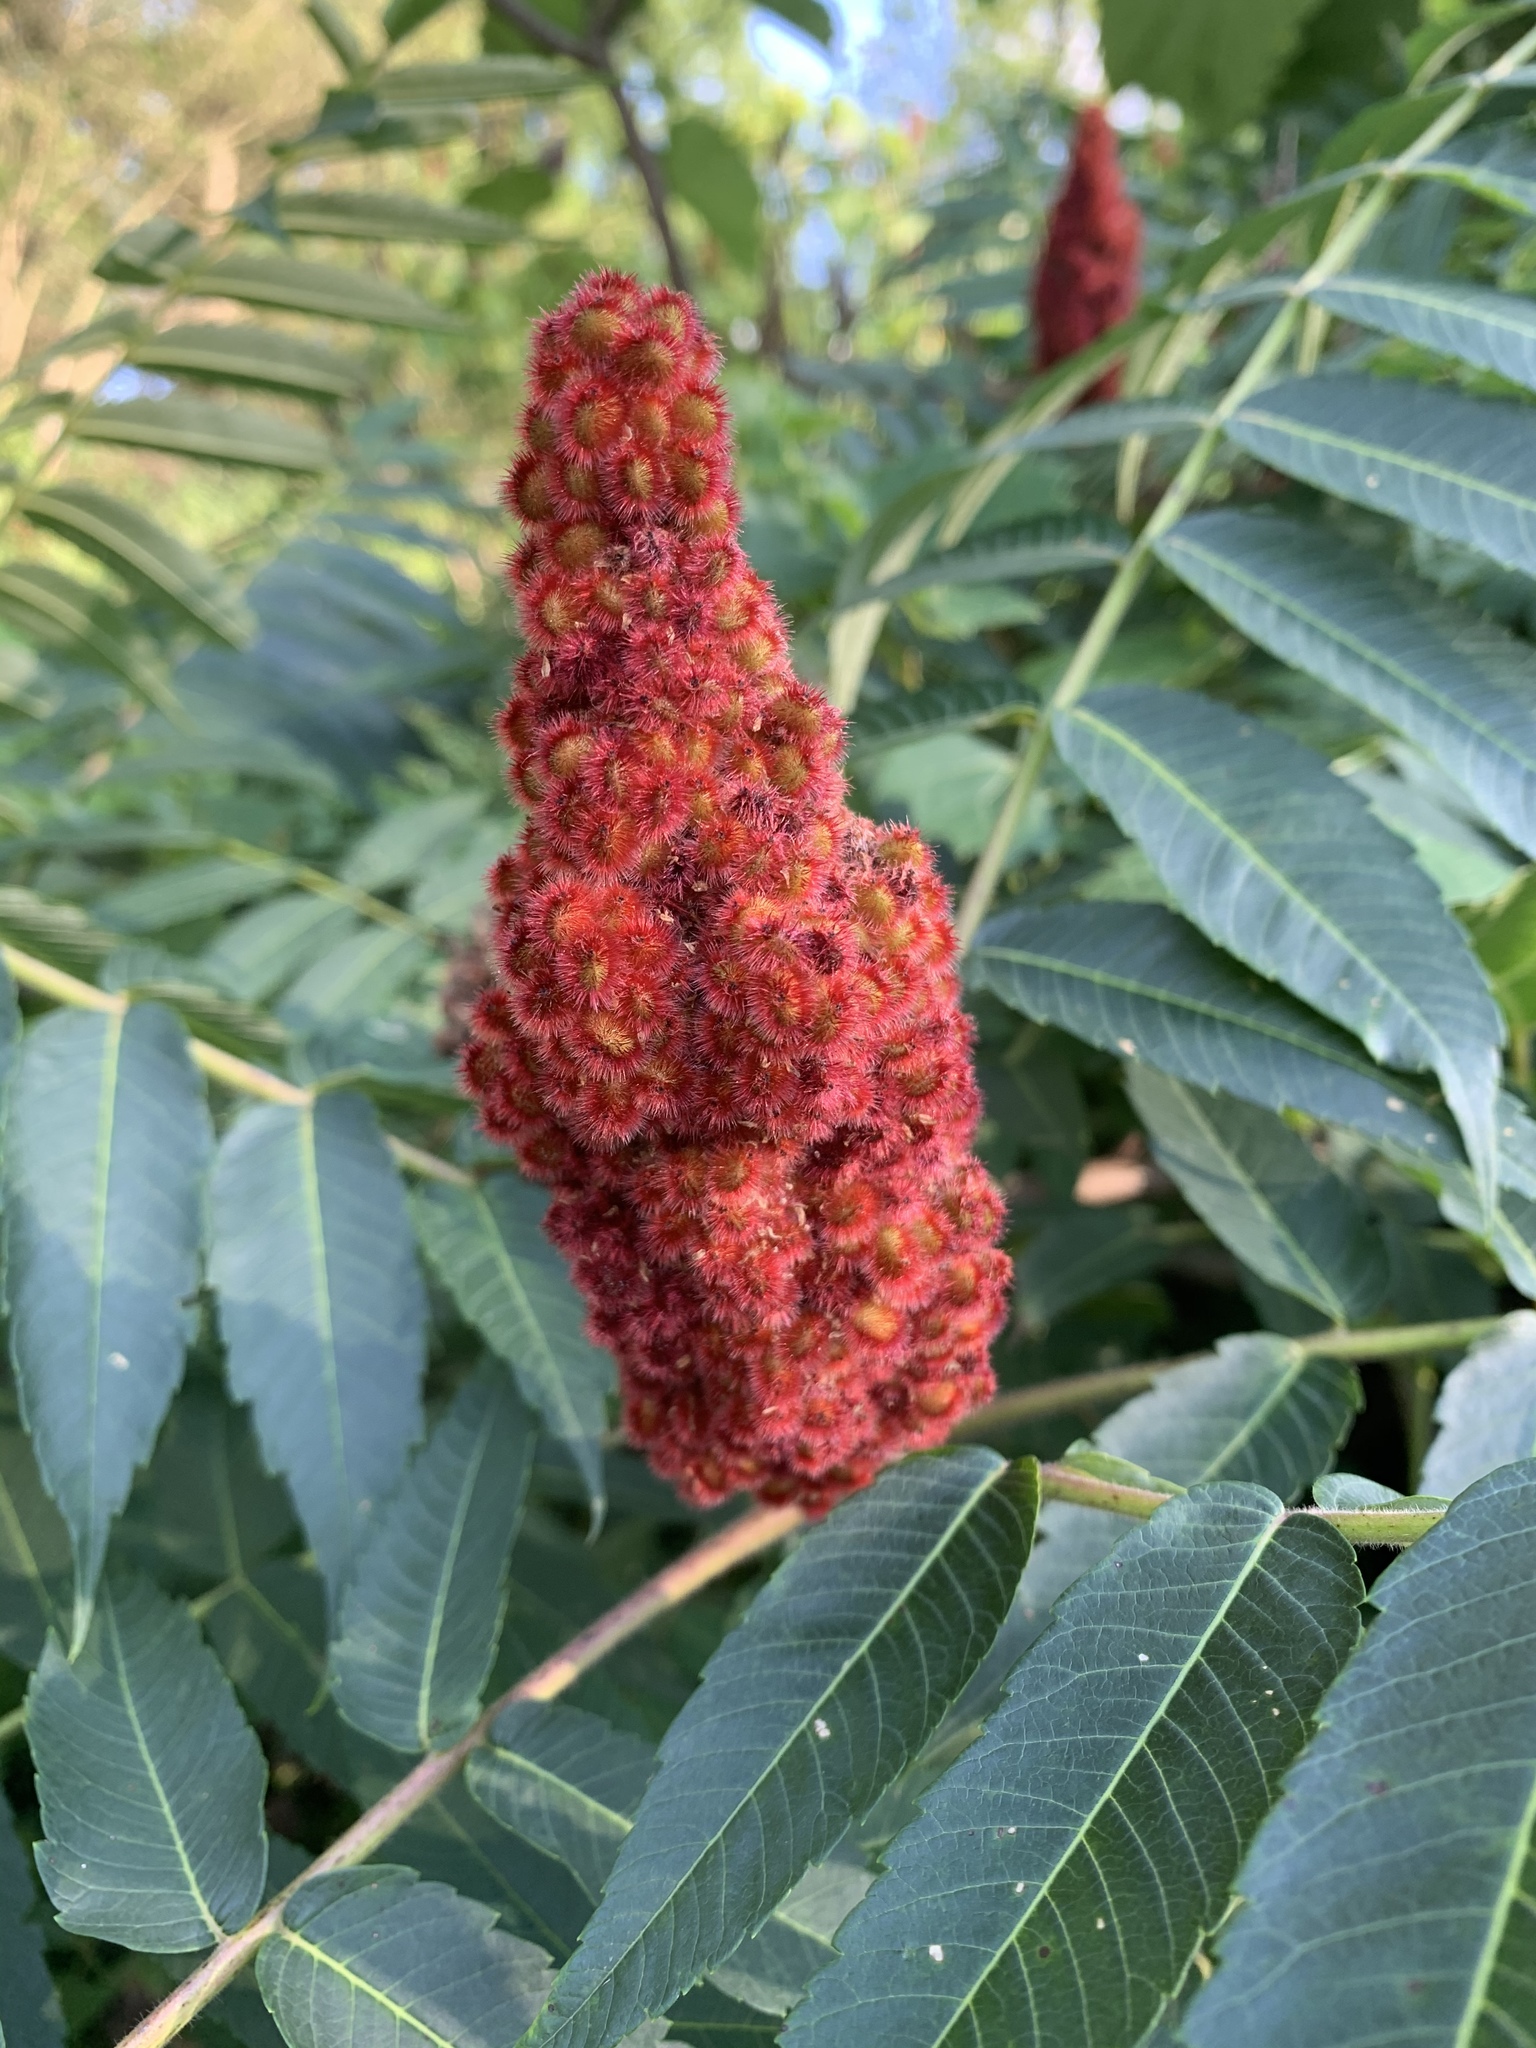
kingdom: Plantae
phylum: Tracheophyta
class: Magnoliopsida
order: Sapindales
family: Anacardiaceae
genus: Rhus
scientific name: Rhus typhina
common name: Staghorn sumac
